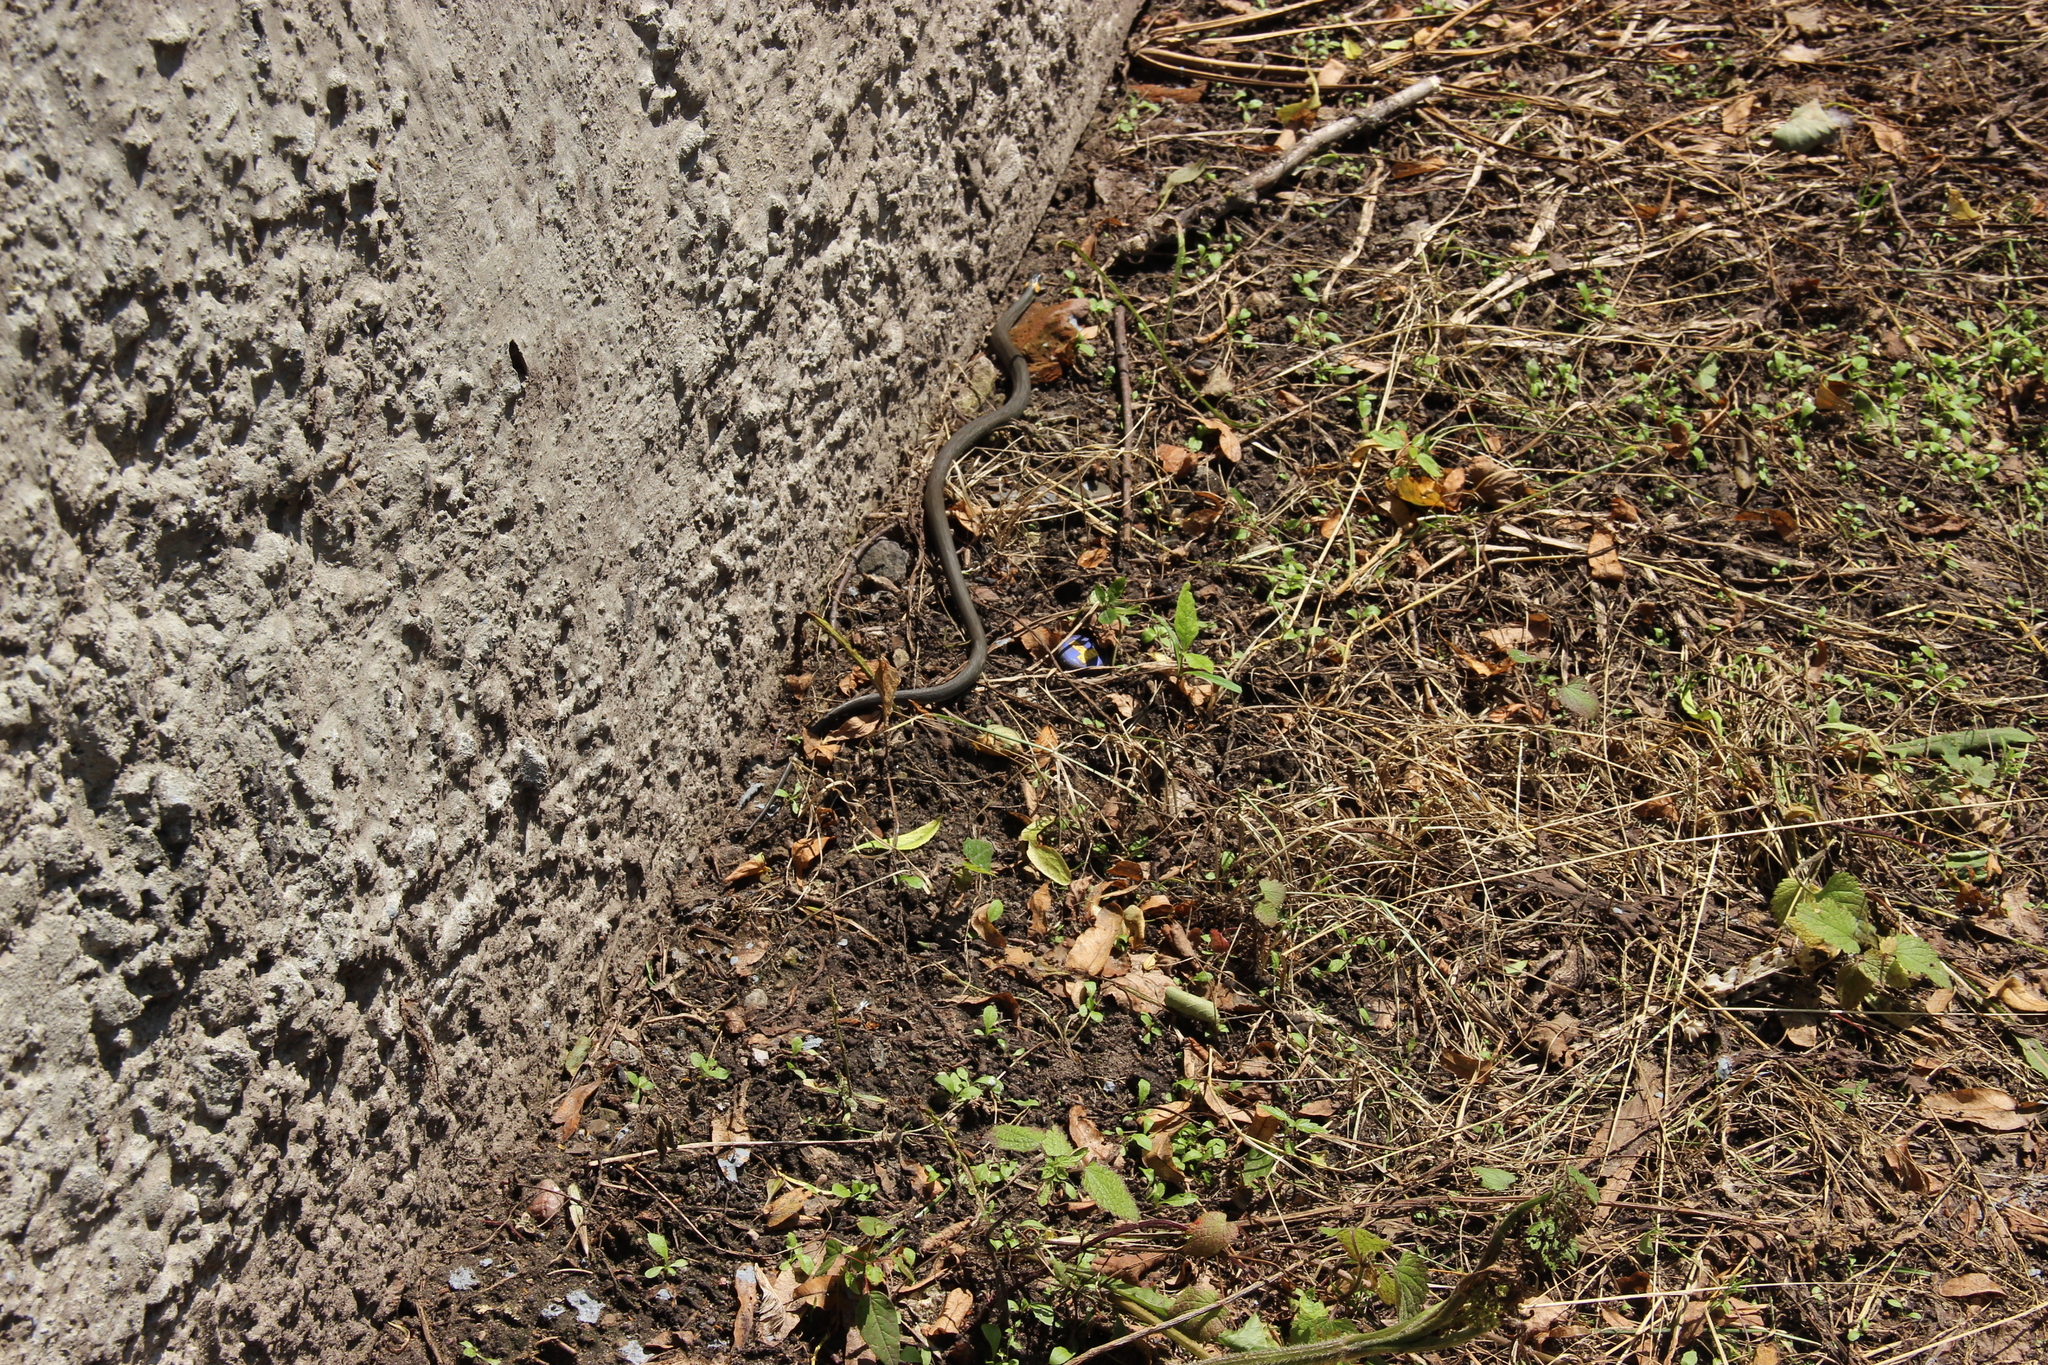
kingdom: Animalia
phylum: Chordata
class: Squamata
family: Colubridae
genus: Natrix
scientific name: Natrix natrix
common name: Grass snake
